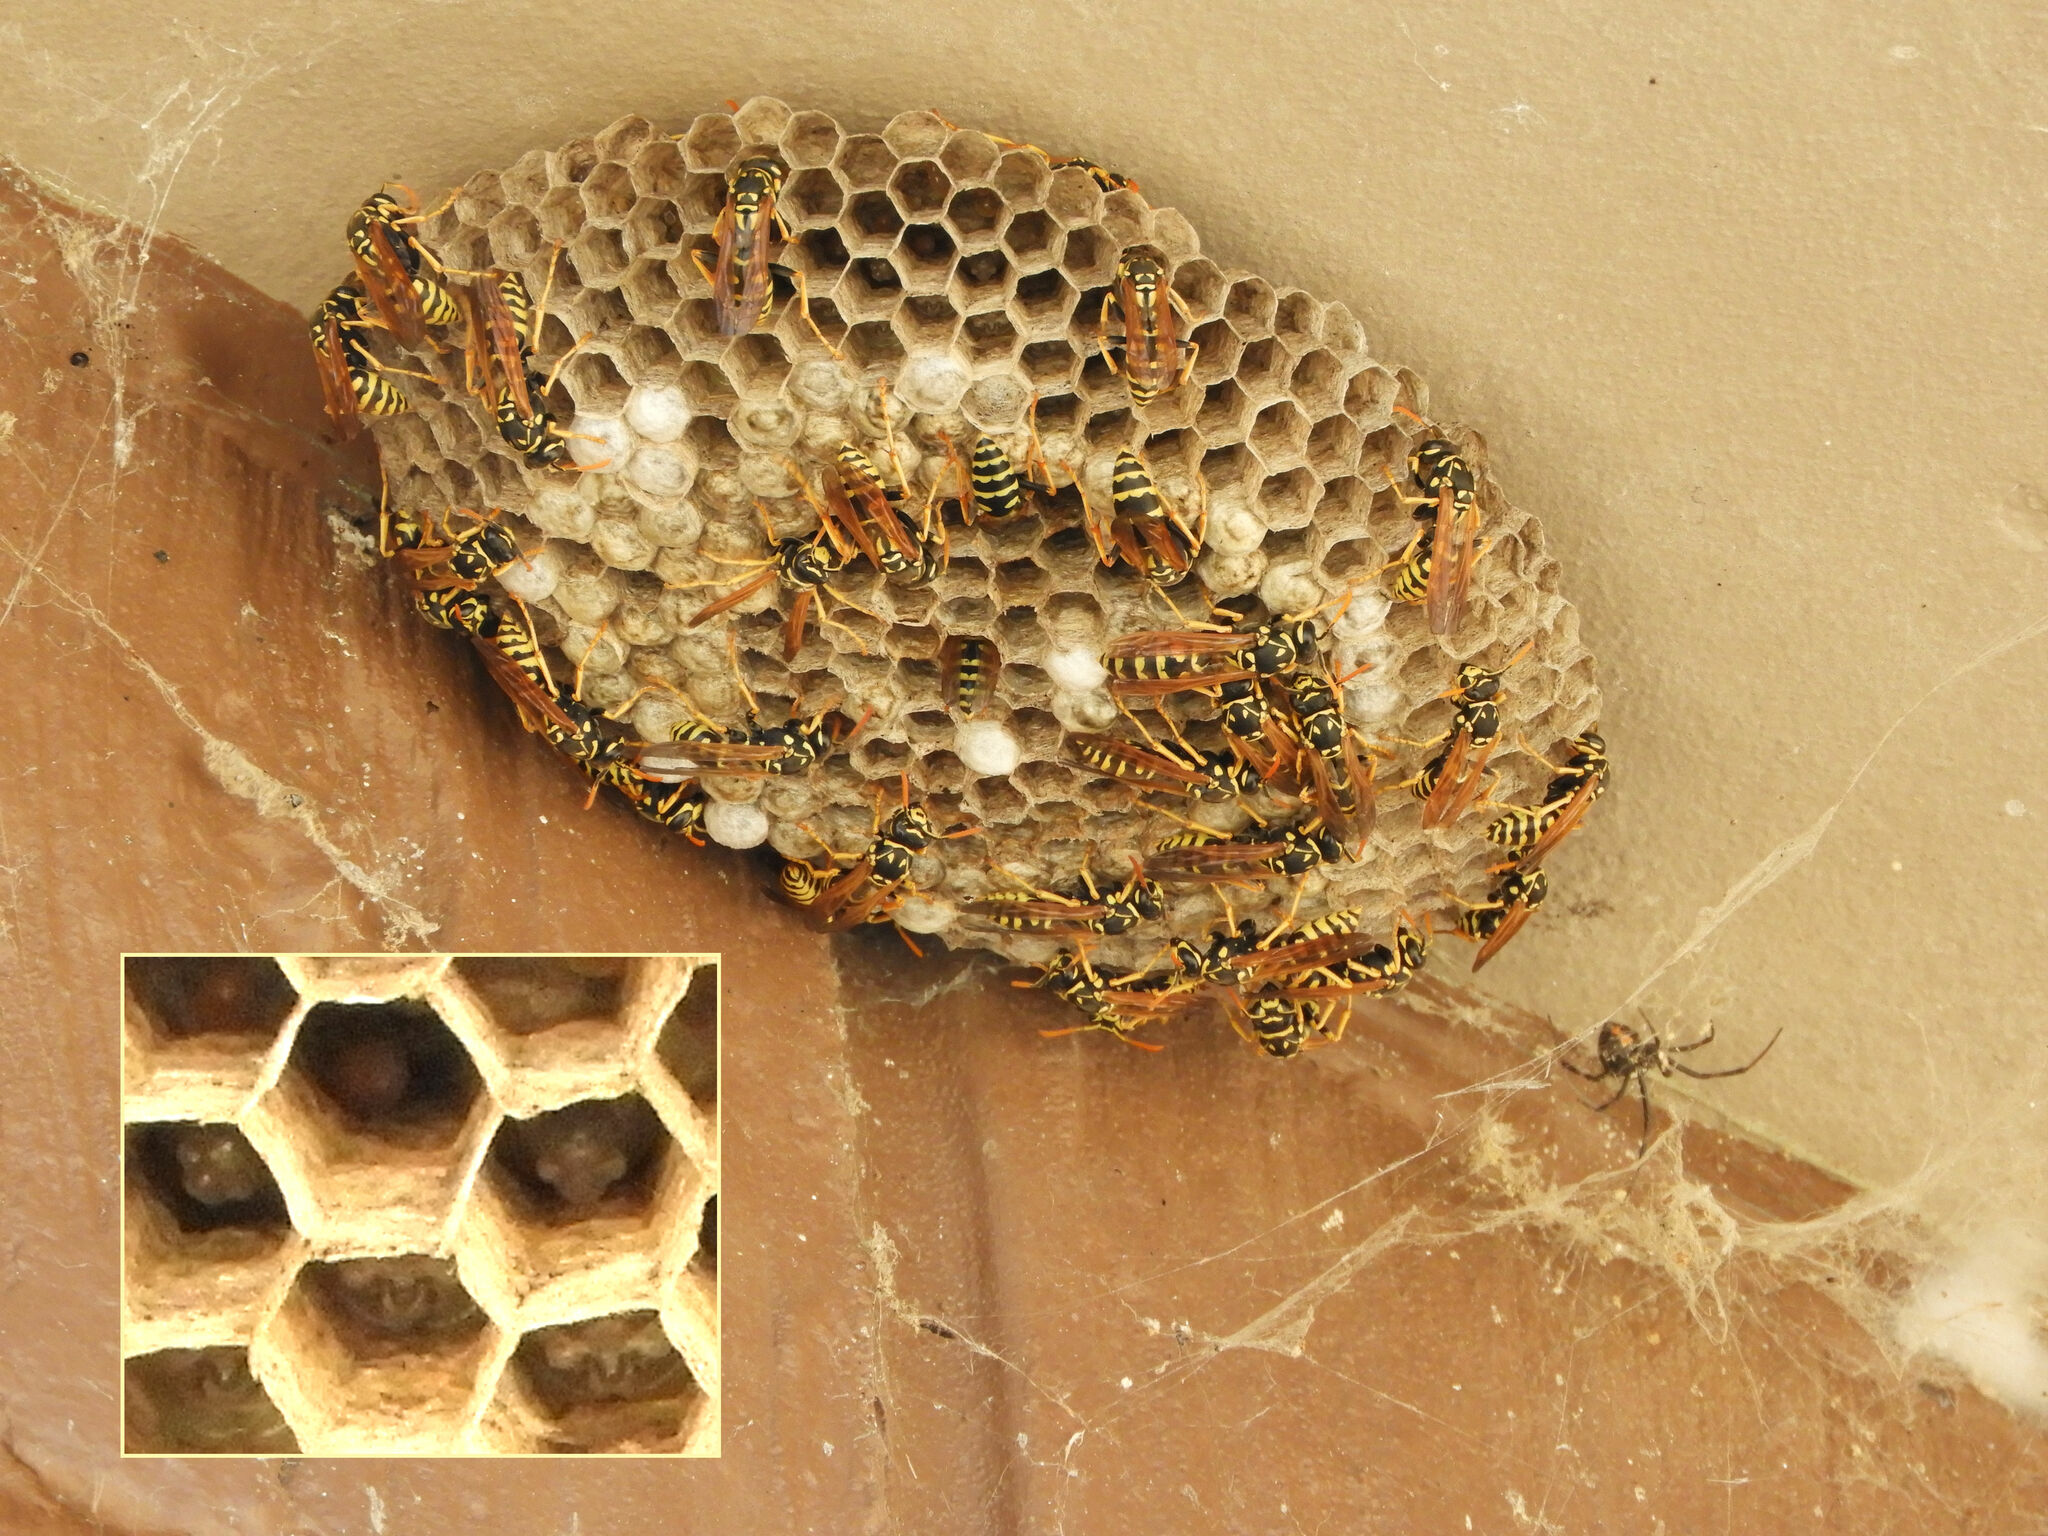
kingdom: Animalia
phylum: Arthropoda
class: Insecta
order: Hymenoptera
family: Eumenidae
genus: Polistes
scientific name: Polistes dominula
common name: Paper wasp
